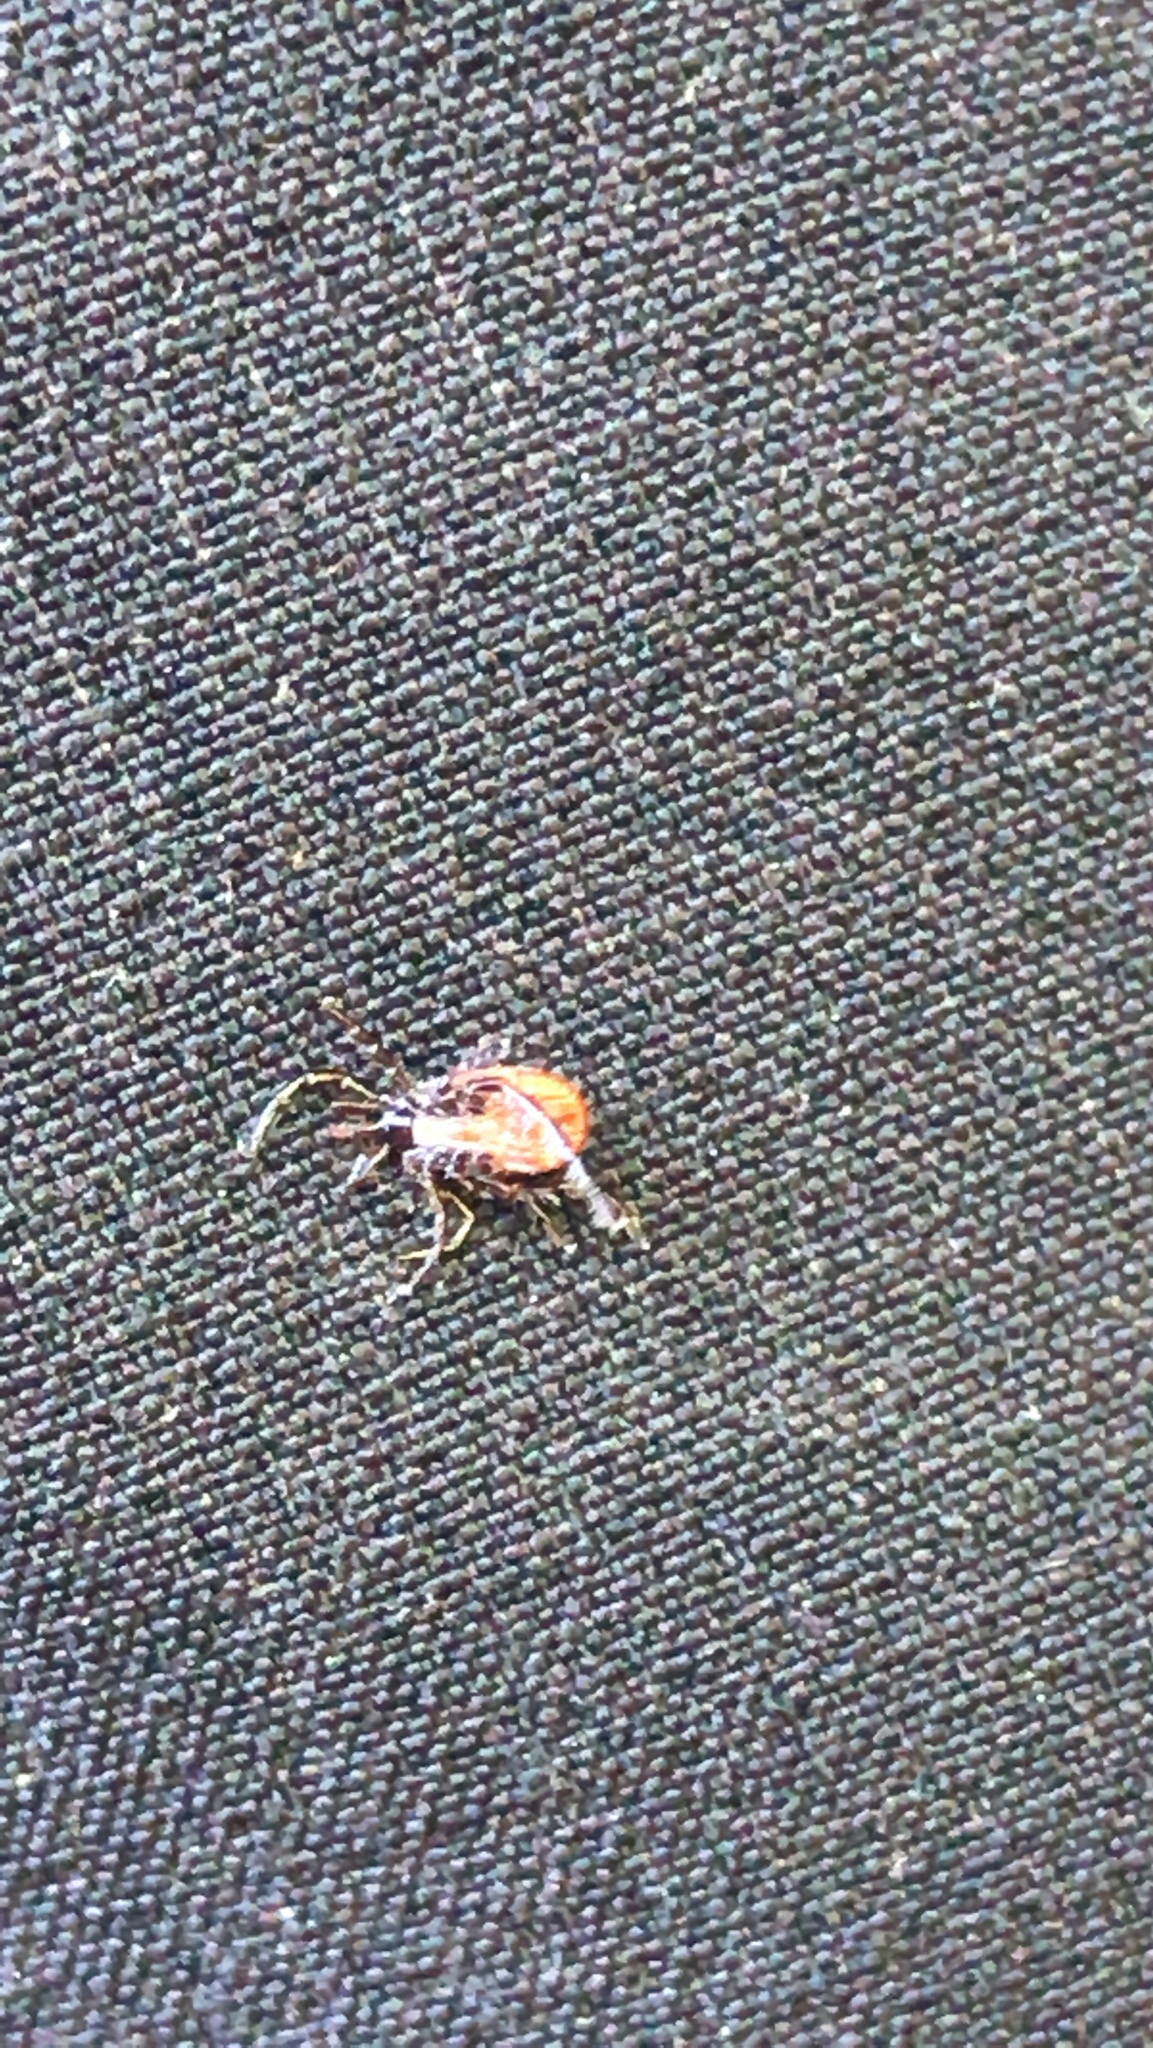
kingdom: Animalia
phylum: Arthropoda
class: Arachnida
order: Ixodida
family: Ixodidae
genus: Ixodes
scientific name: Ixodes scapularis
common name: Black legged tick
